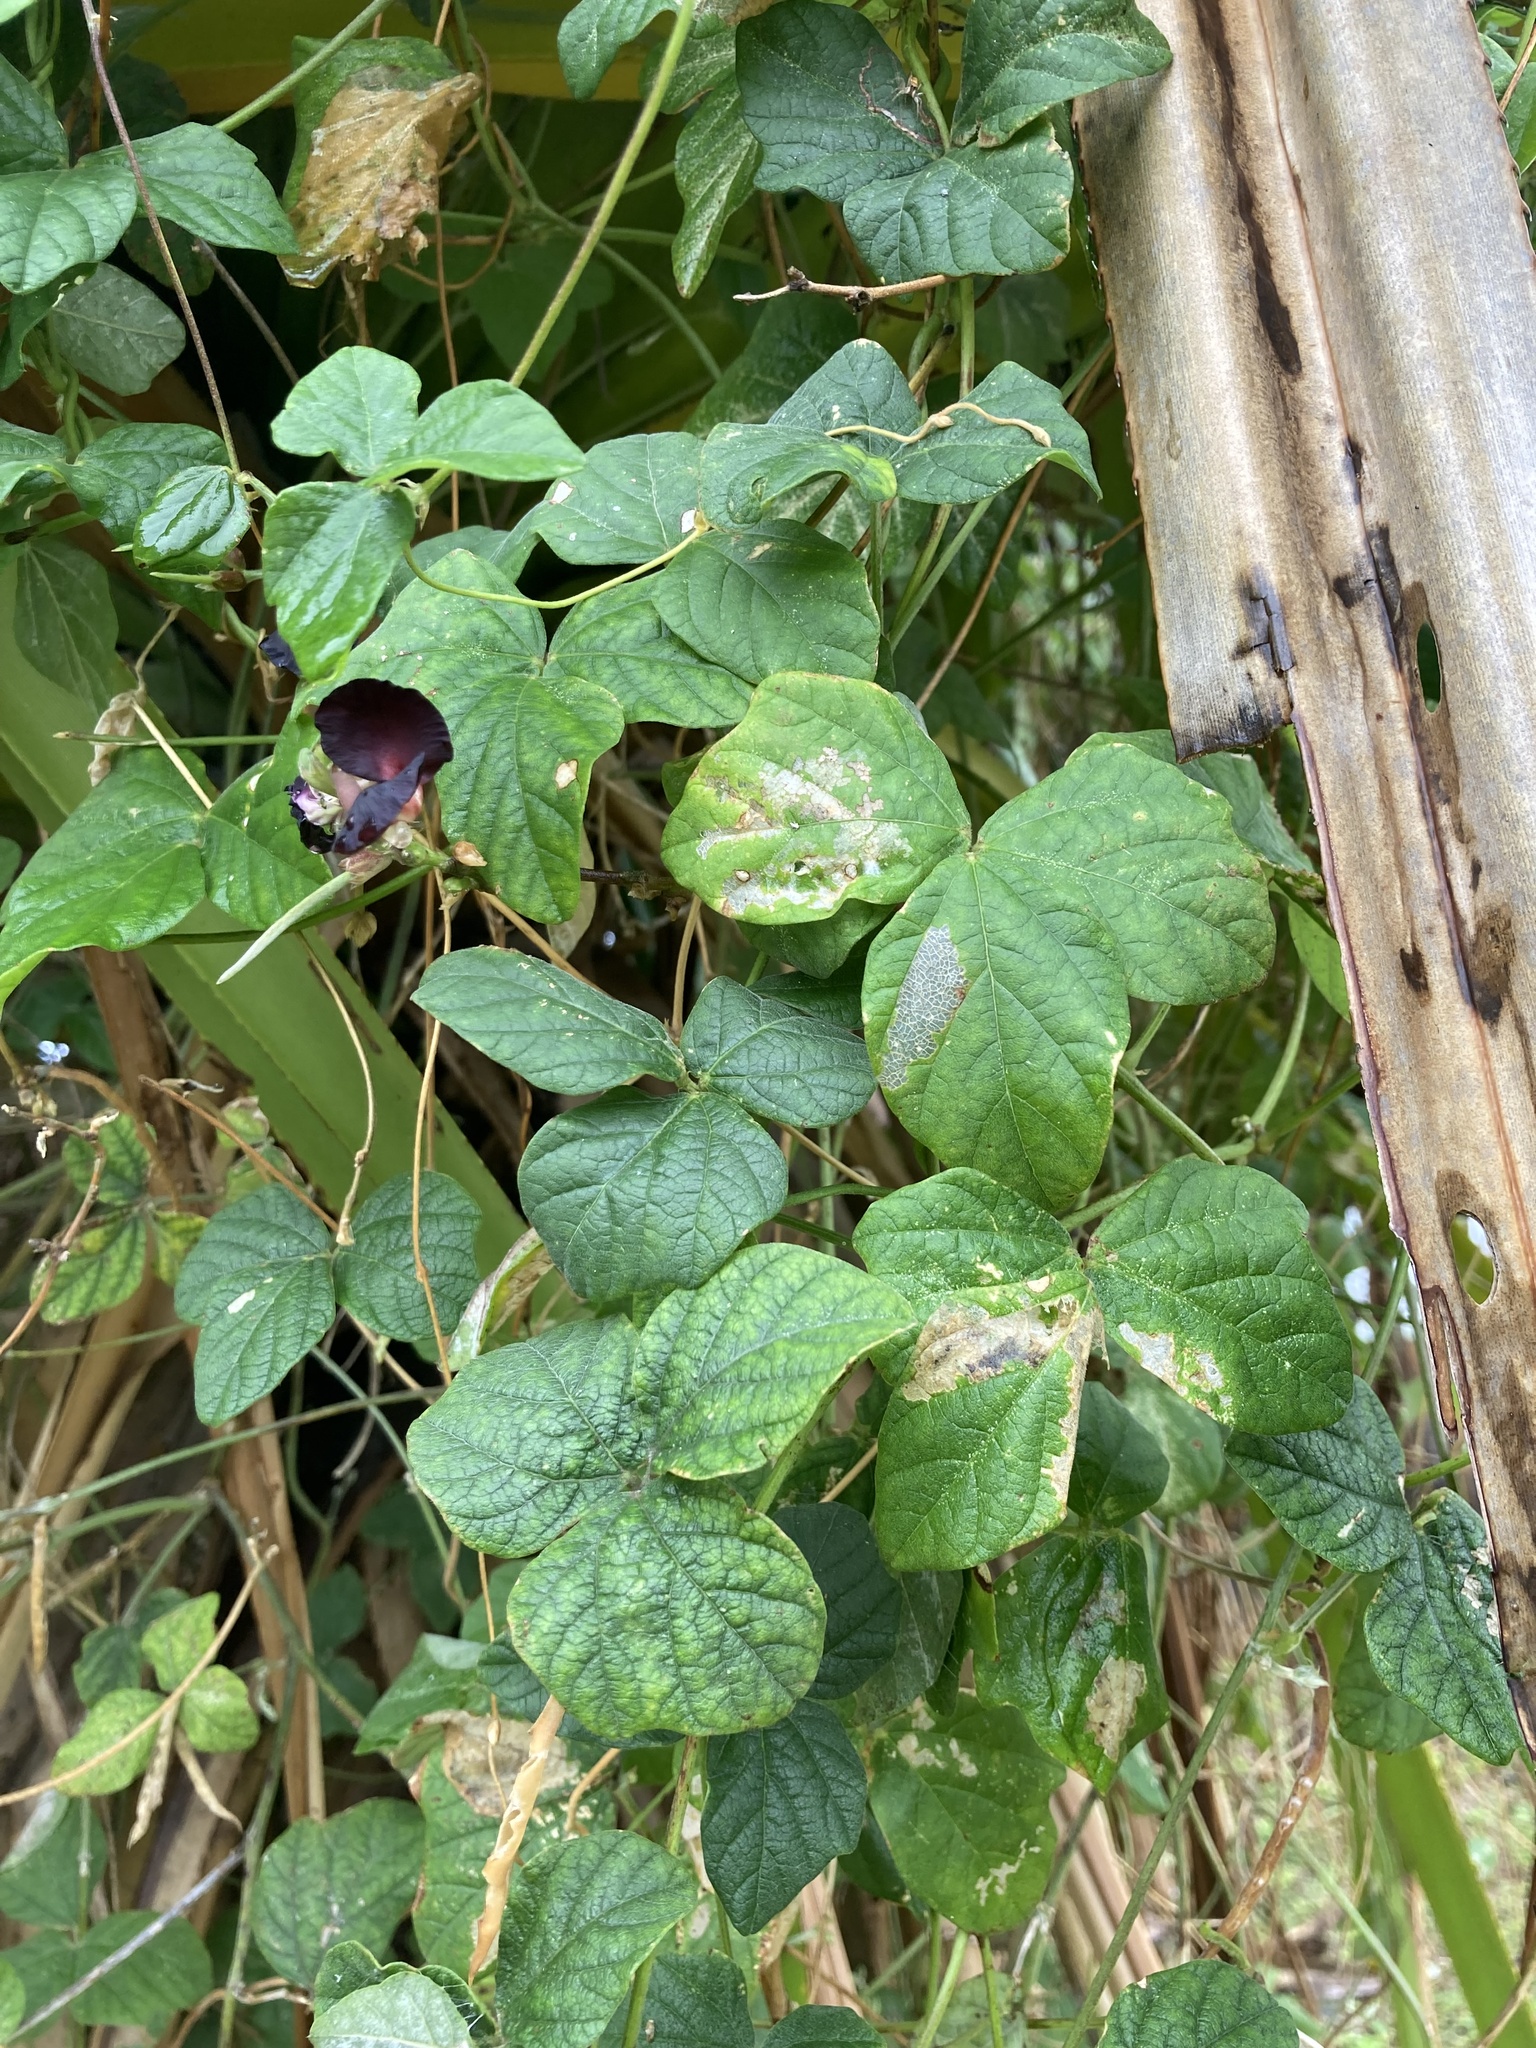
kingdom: Plantae
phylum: Tracheophyta
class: Magnoliopsida
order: Fabales
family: Fabaceae
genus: Macroptilium
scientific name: Macroptilium atropurpureum
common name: Purple bushbean
